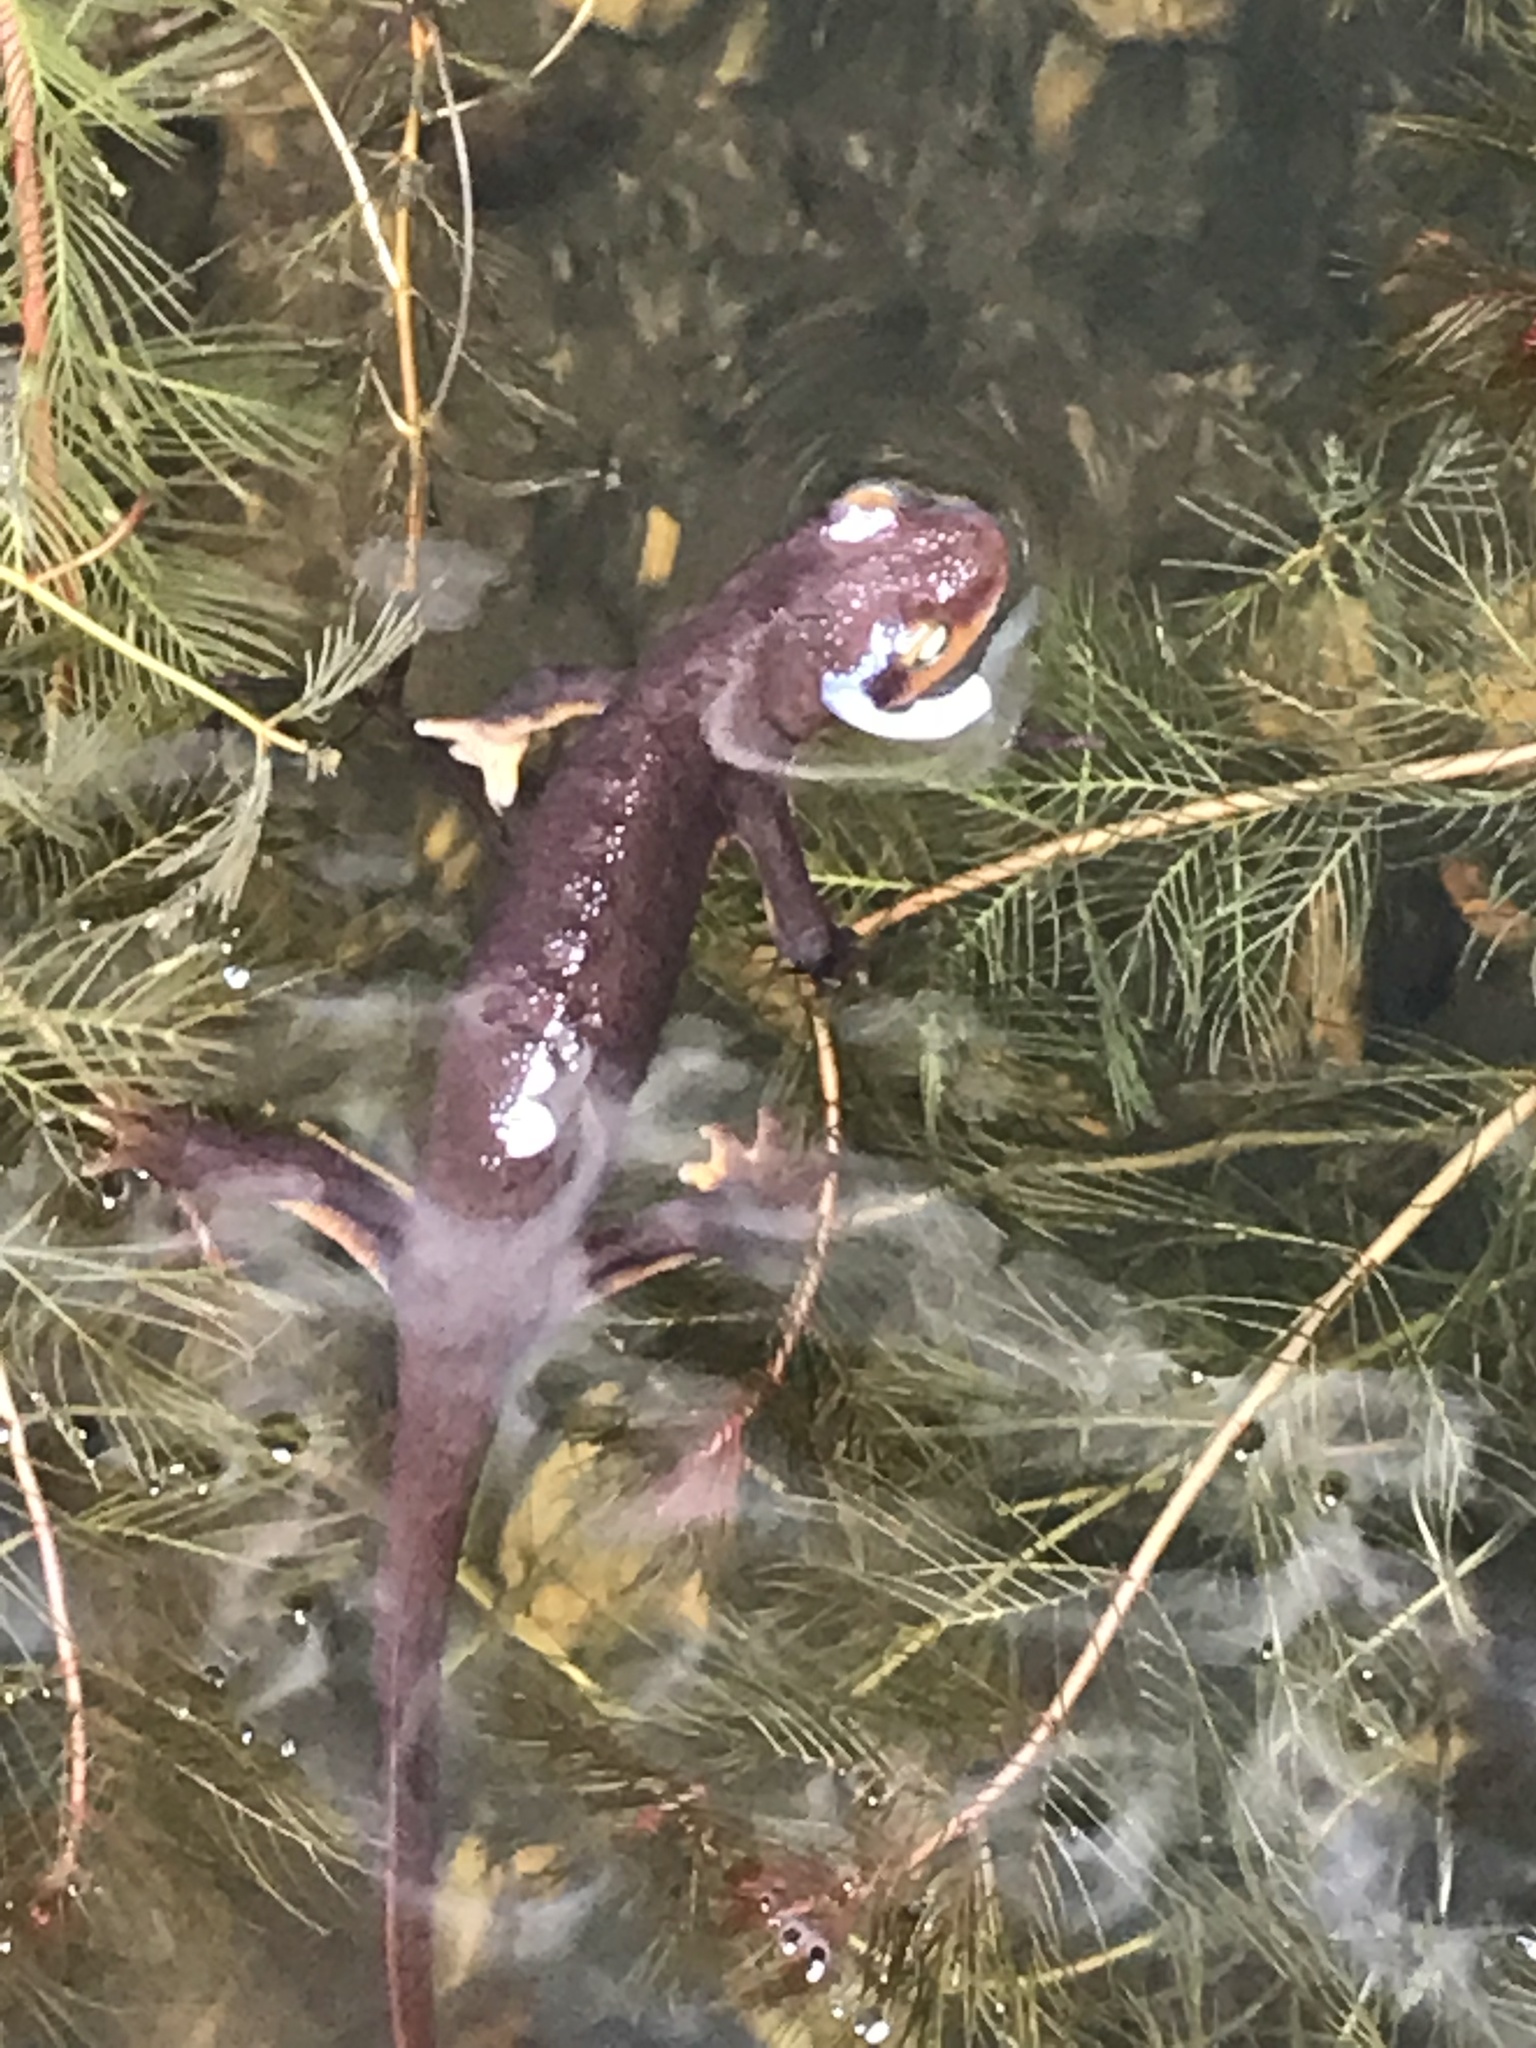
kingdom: Animalia
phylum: Chordata
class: Amphibia
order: Caudata
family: Salamandridae
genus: Taricha
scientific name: Taricha torosa
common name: California newt
